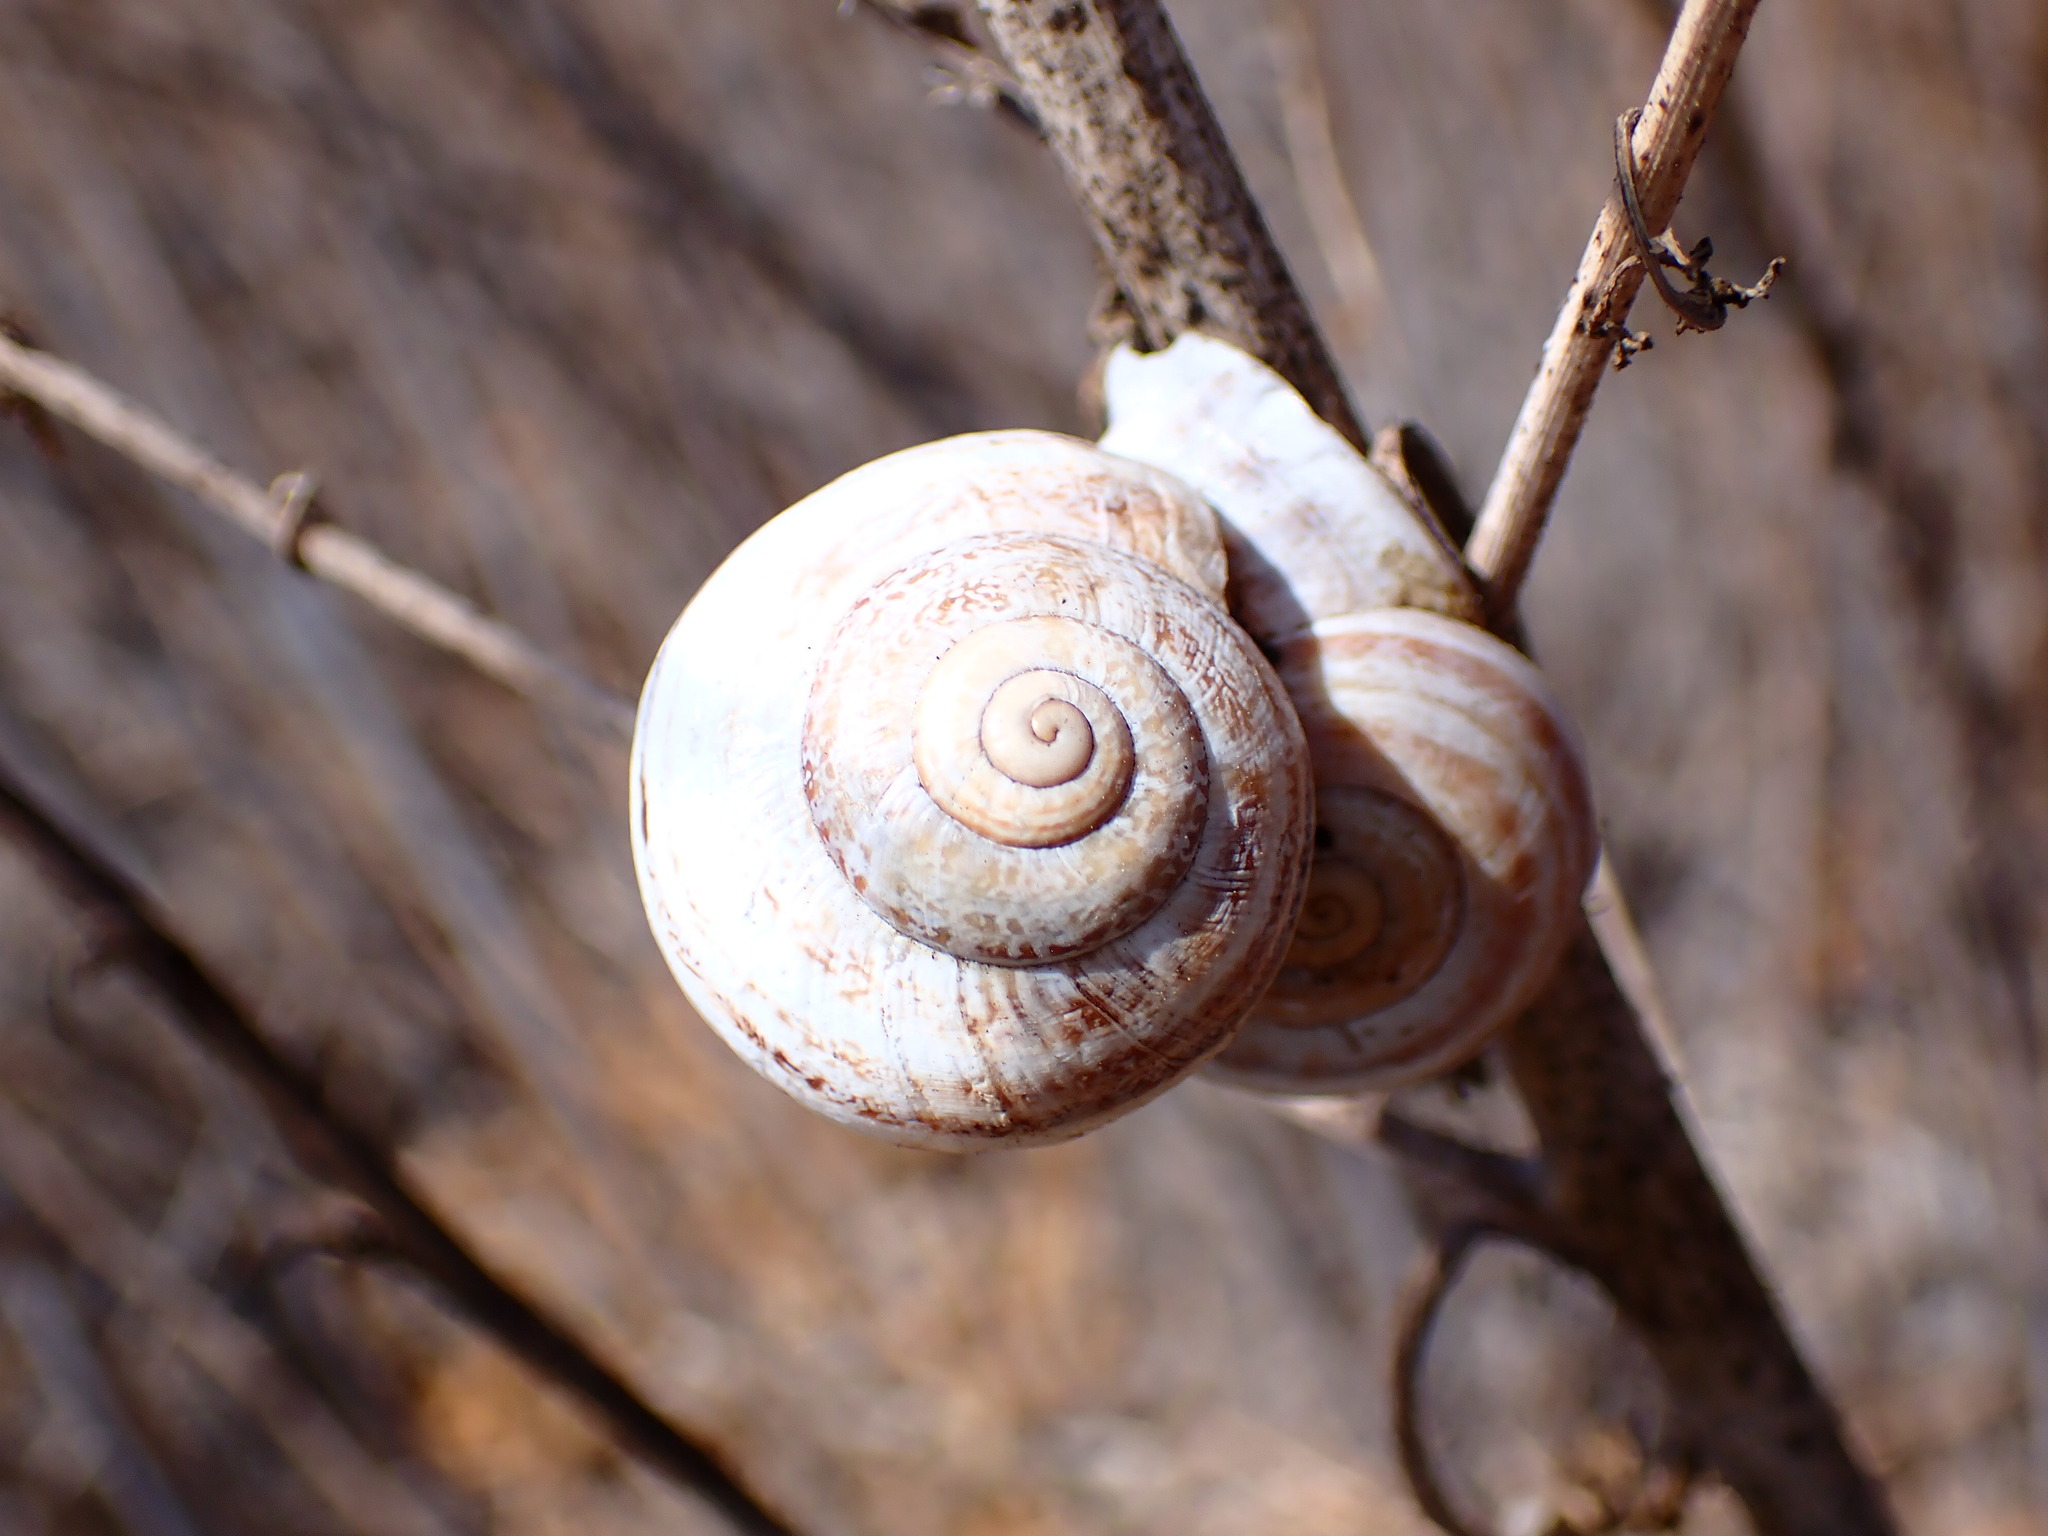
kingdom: Animalia
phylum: Mollusca
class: Gastropoda
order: Stylommatophora
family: Helicidae
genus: Otala
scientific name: Otala lactea
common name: Milk snail
